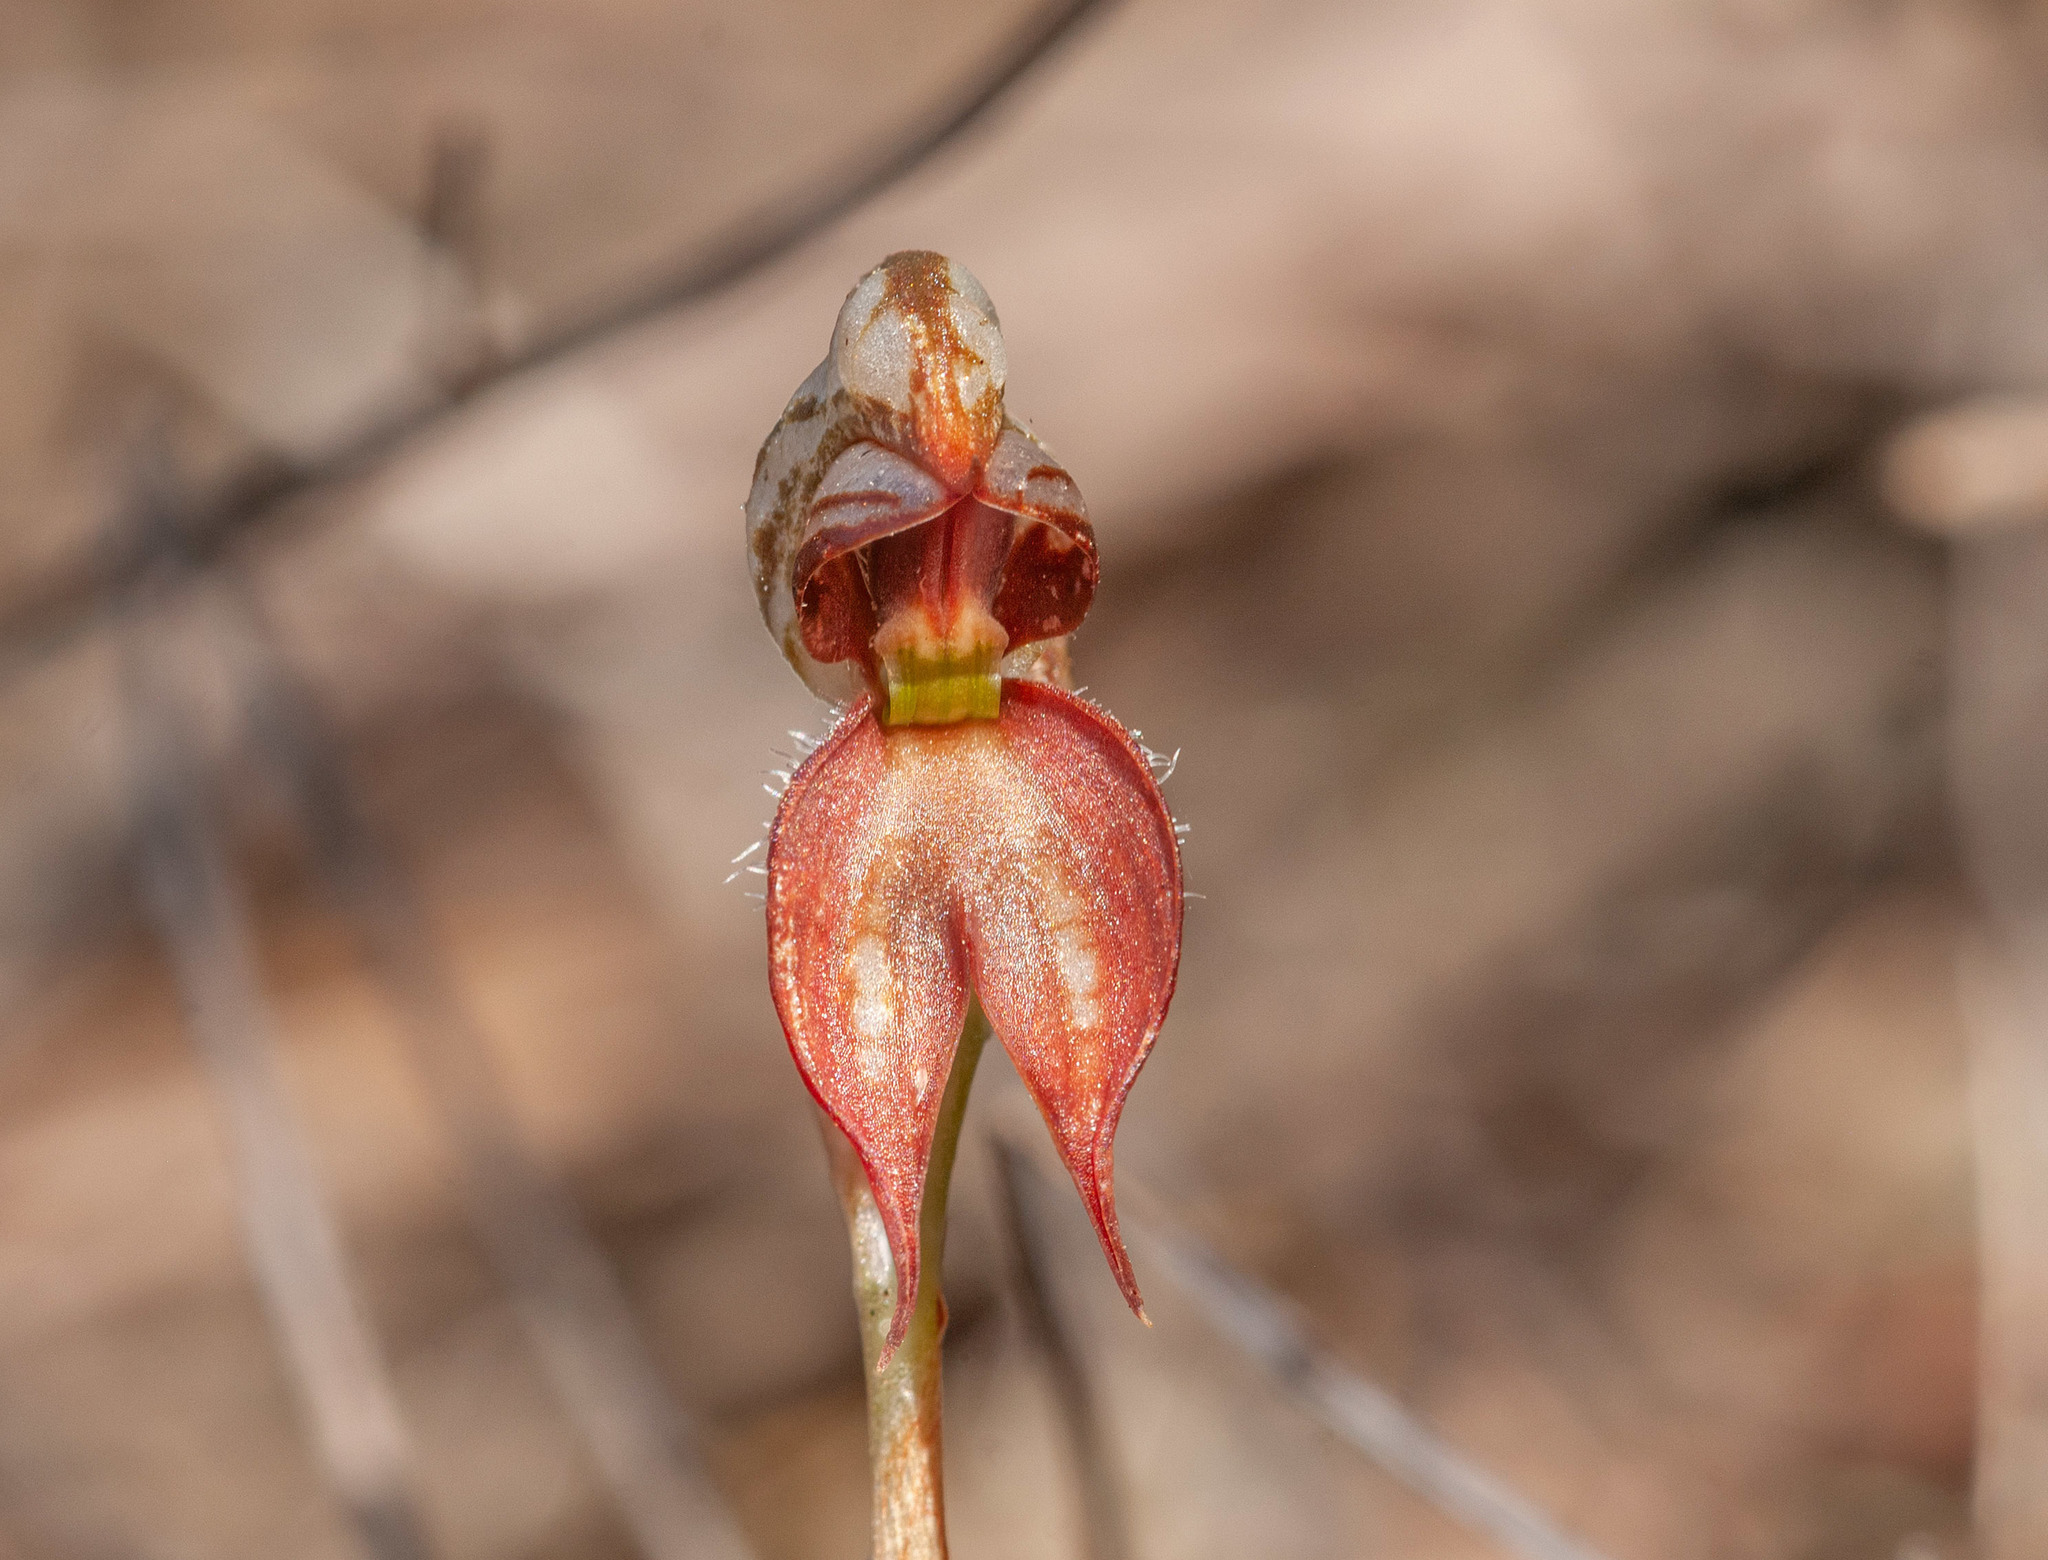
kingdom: Plantae
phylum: Tracheophyta
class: Liliopsida
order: Asparagales
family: Orchidaceae
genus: Pterostylis
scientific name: Pterostylis lingua
